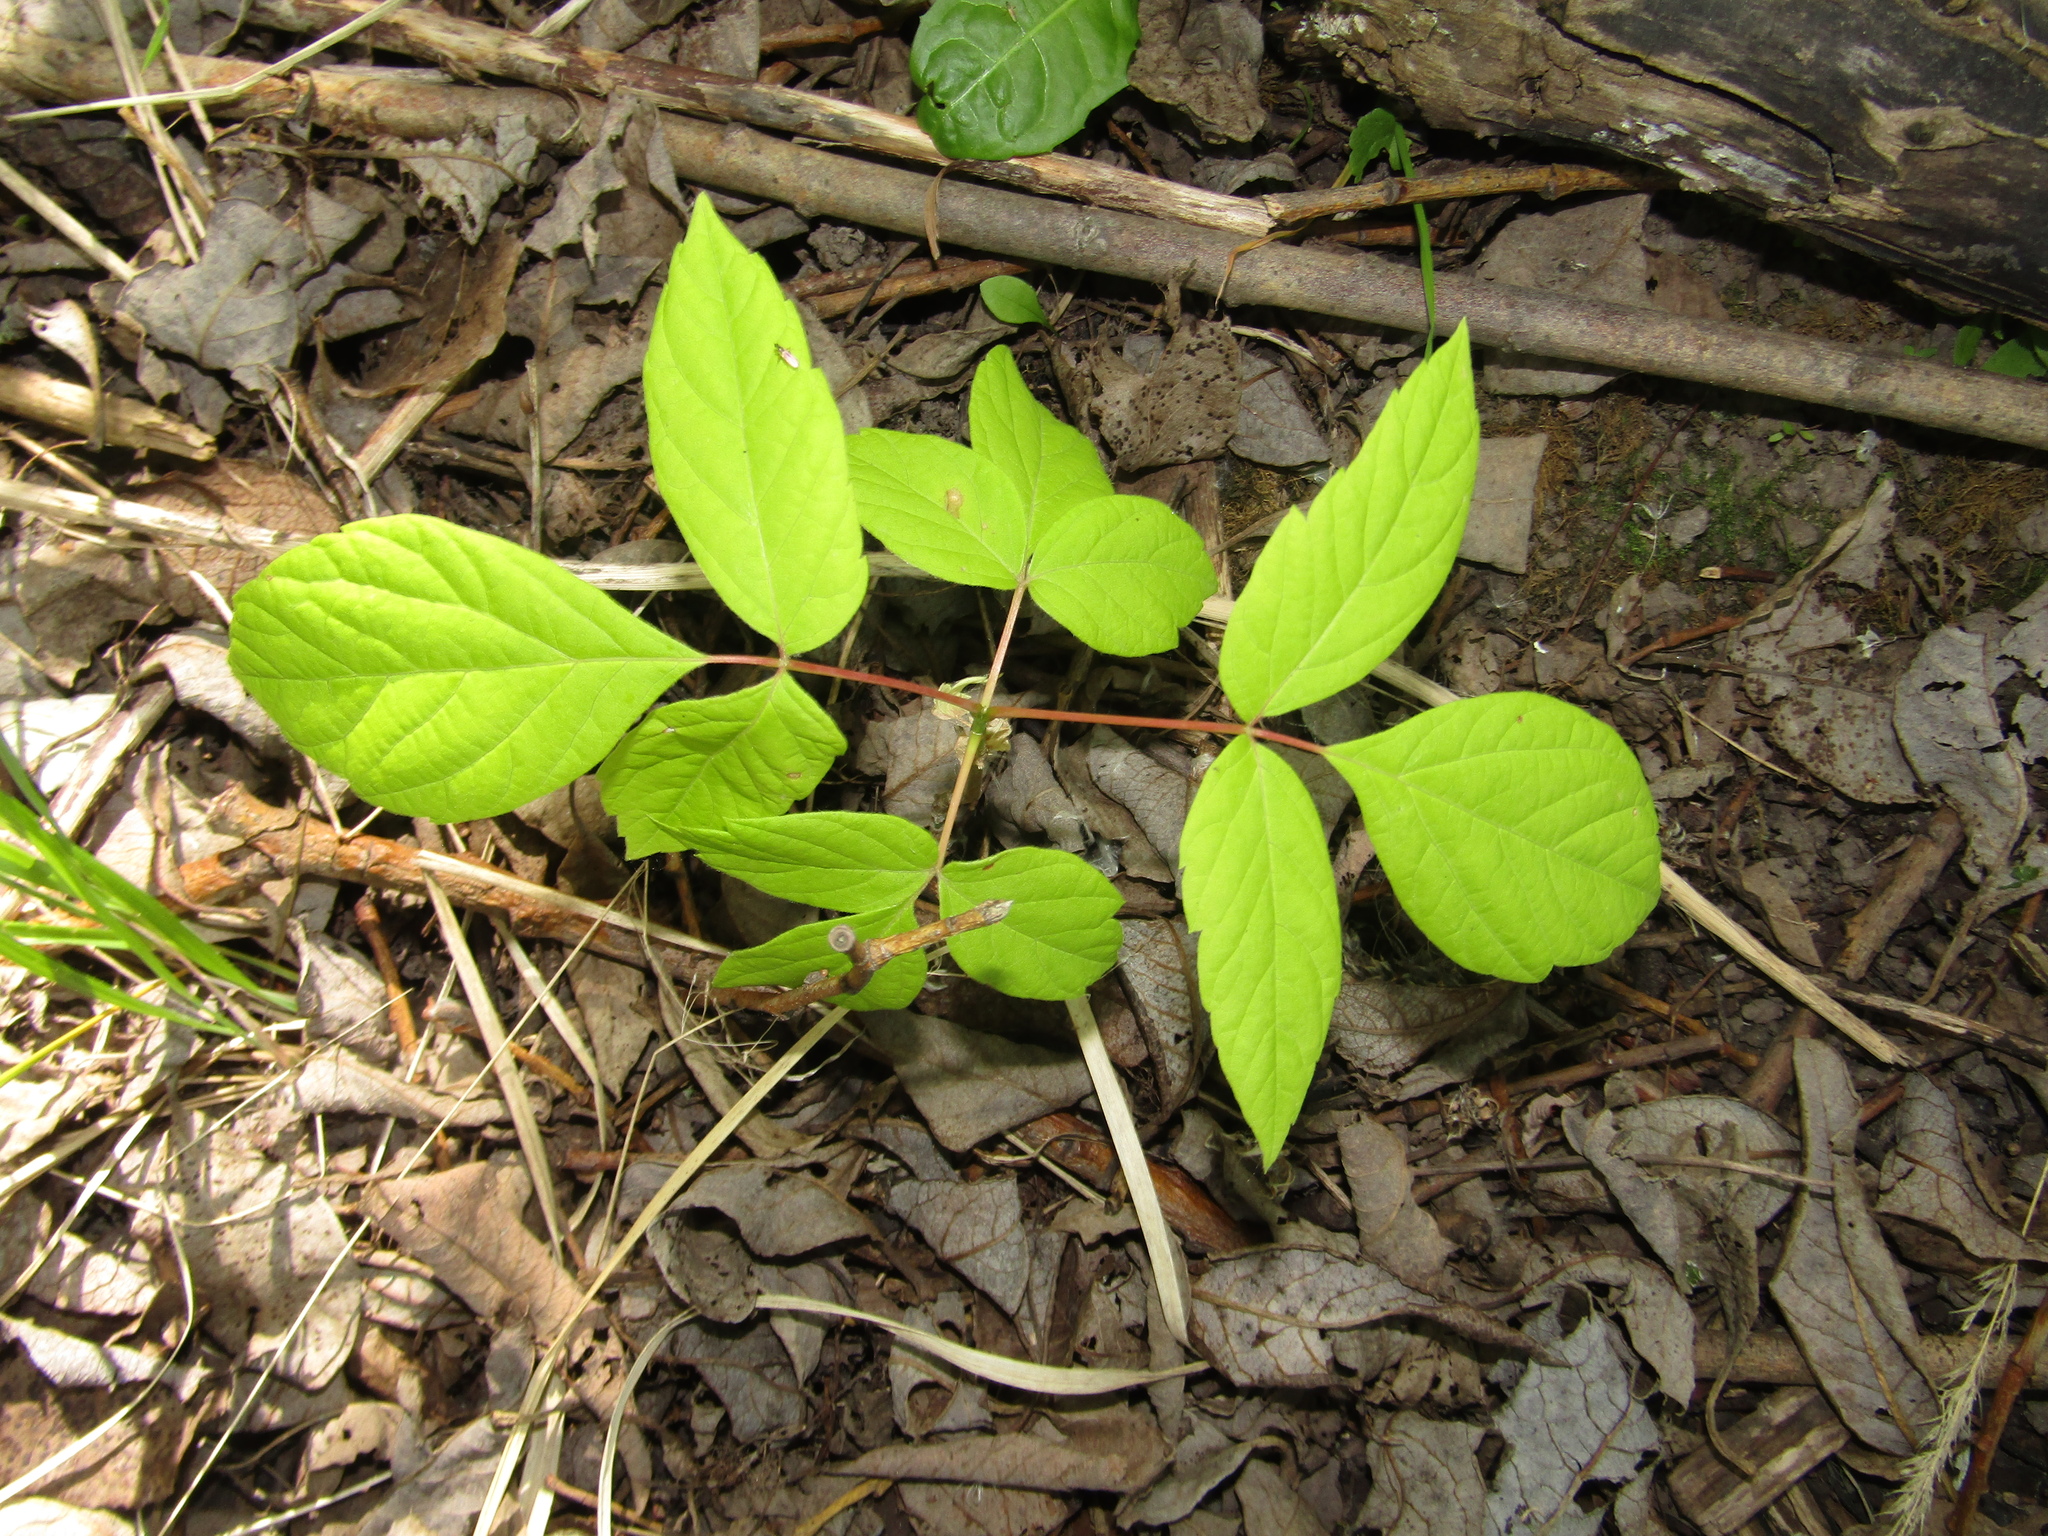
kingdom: Plantae
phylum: Tracheophyta
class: Magnoliopsida
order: Sapindales
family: Sapindaceae
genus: Acer
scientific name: Acer negundo
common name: Ashleaf maple
